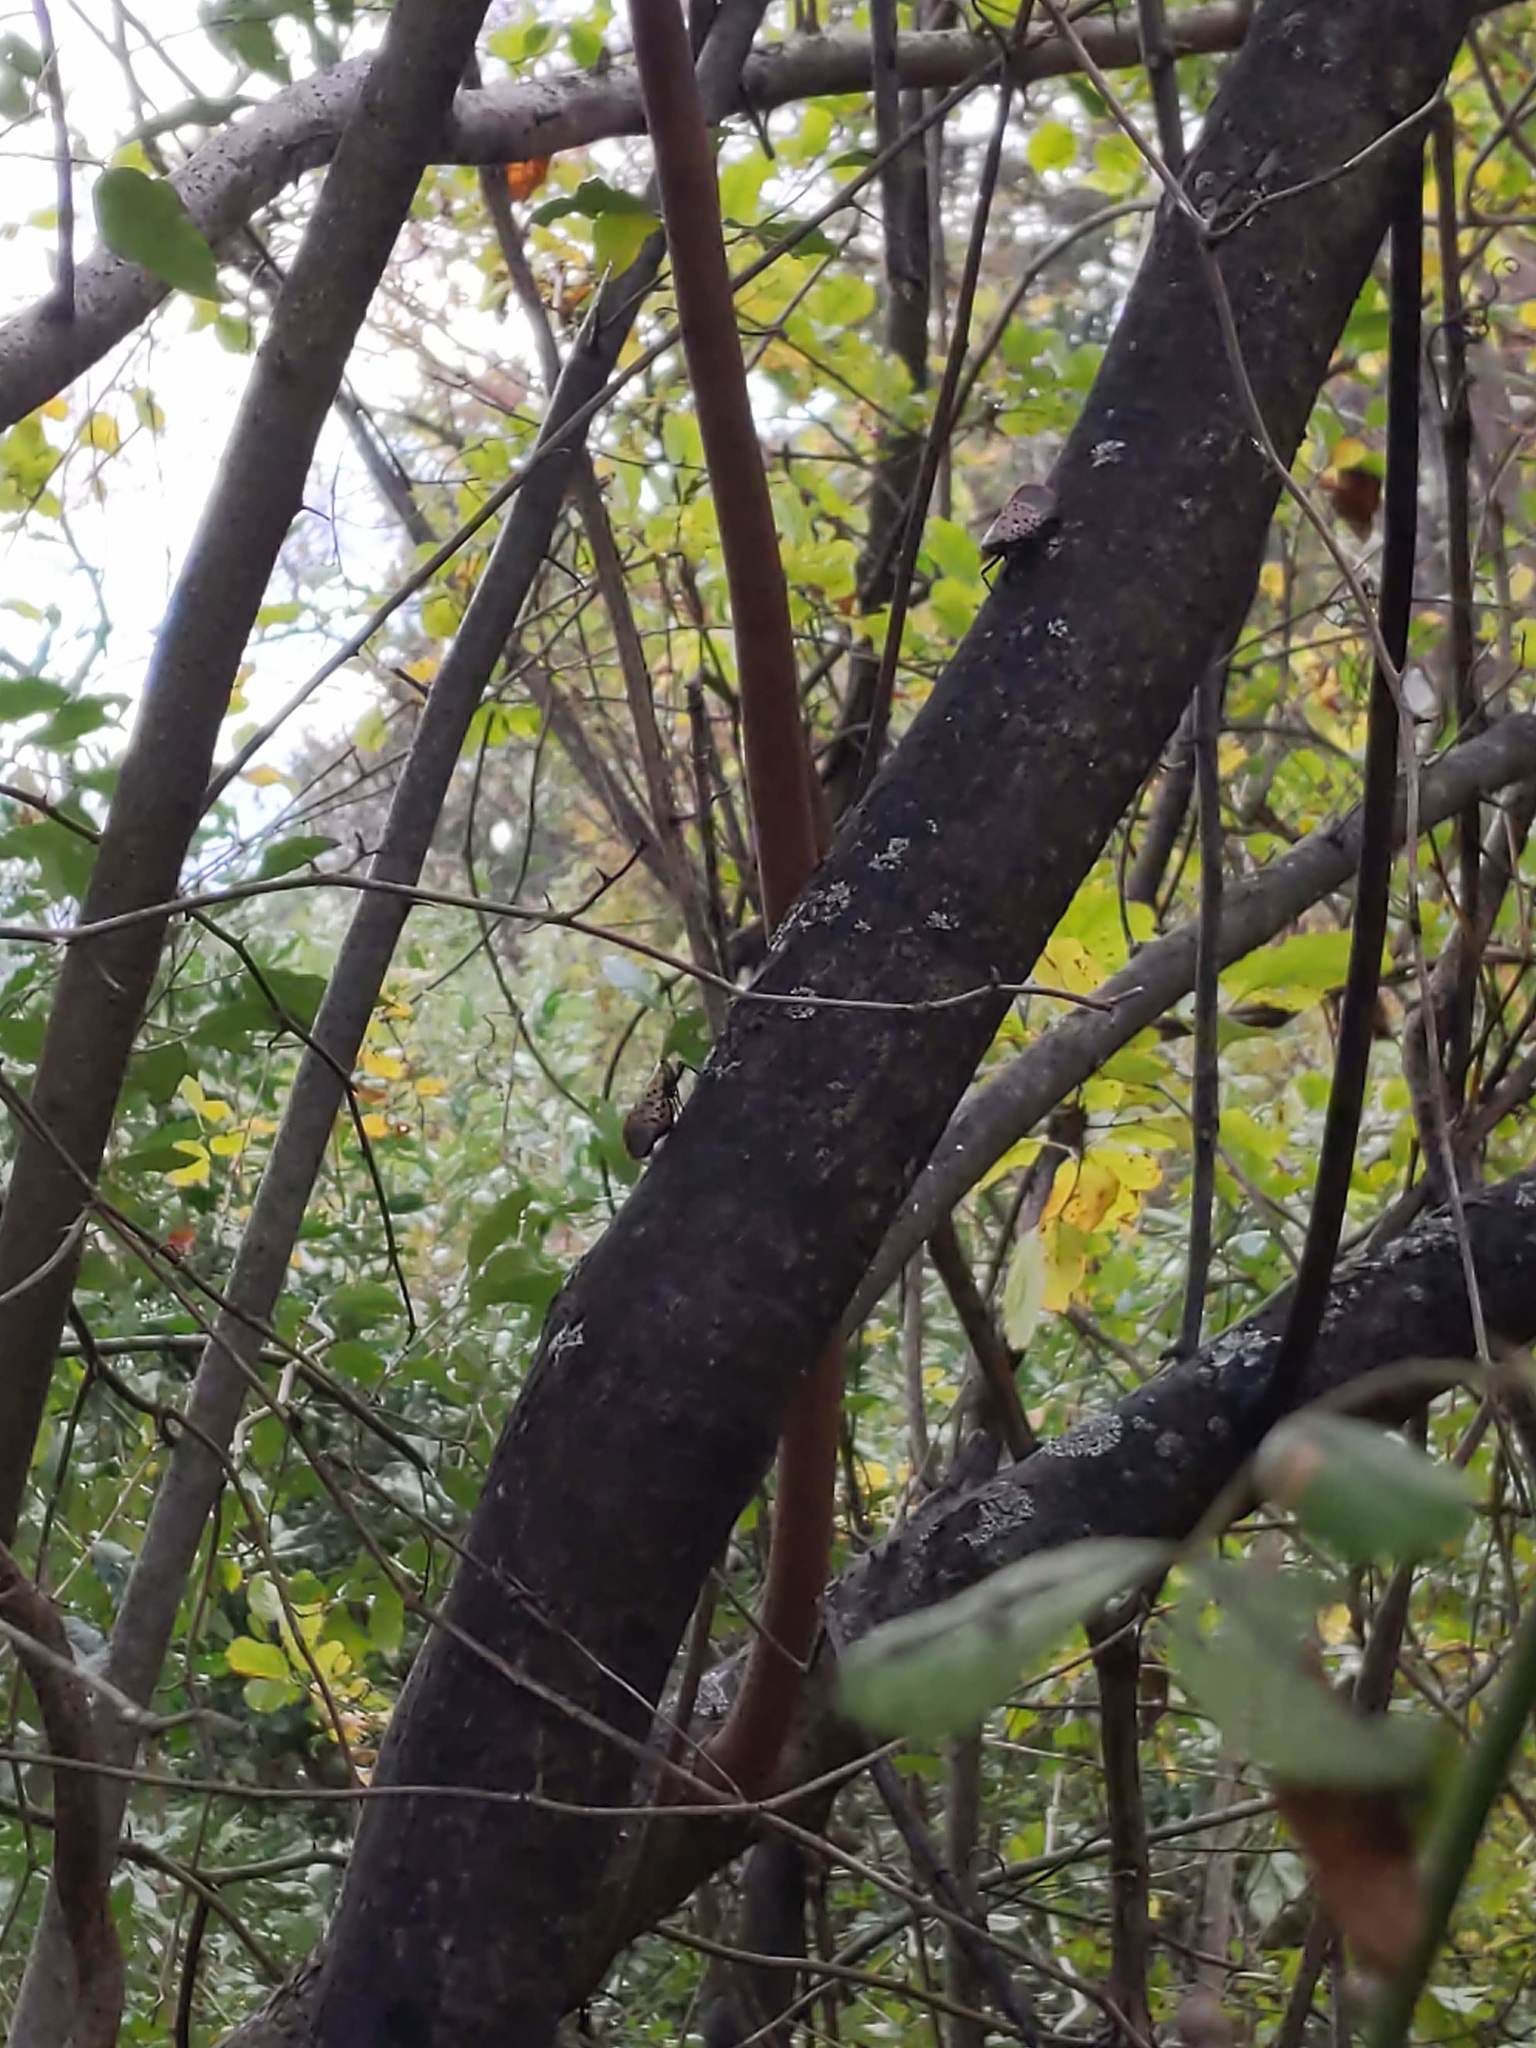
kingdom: Animalia
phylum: Arthropoda
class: Insecta
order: Hemiptera
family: Fulgoridae
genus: Lycorma
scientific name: Lycorma delicatula
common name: Spotted lanternfly
